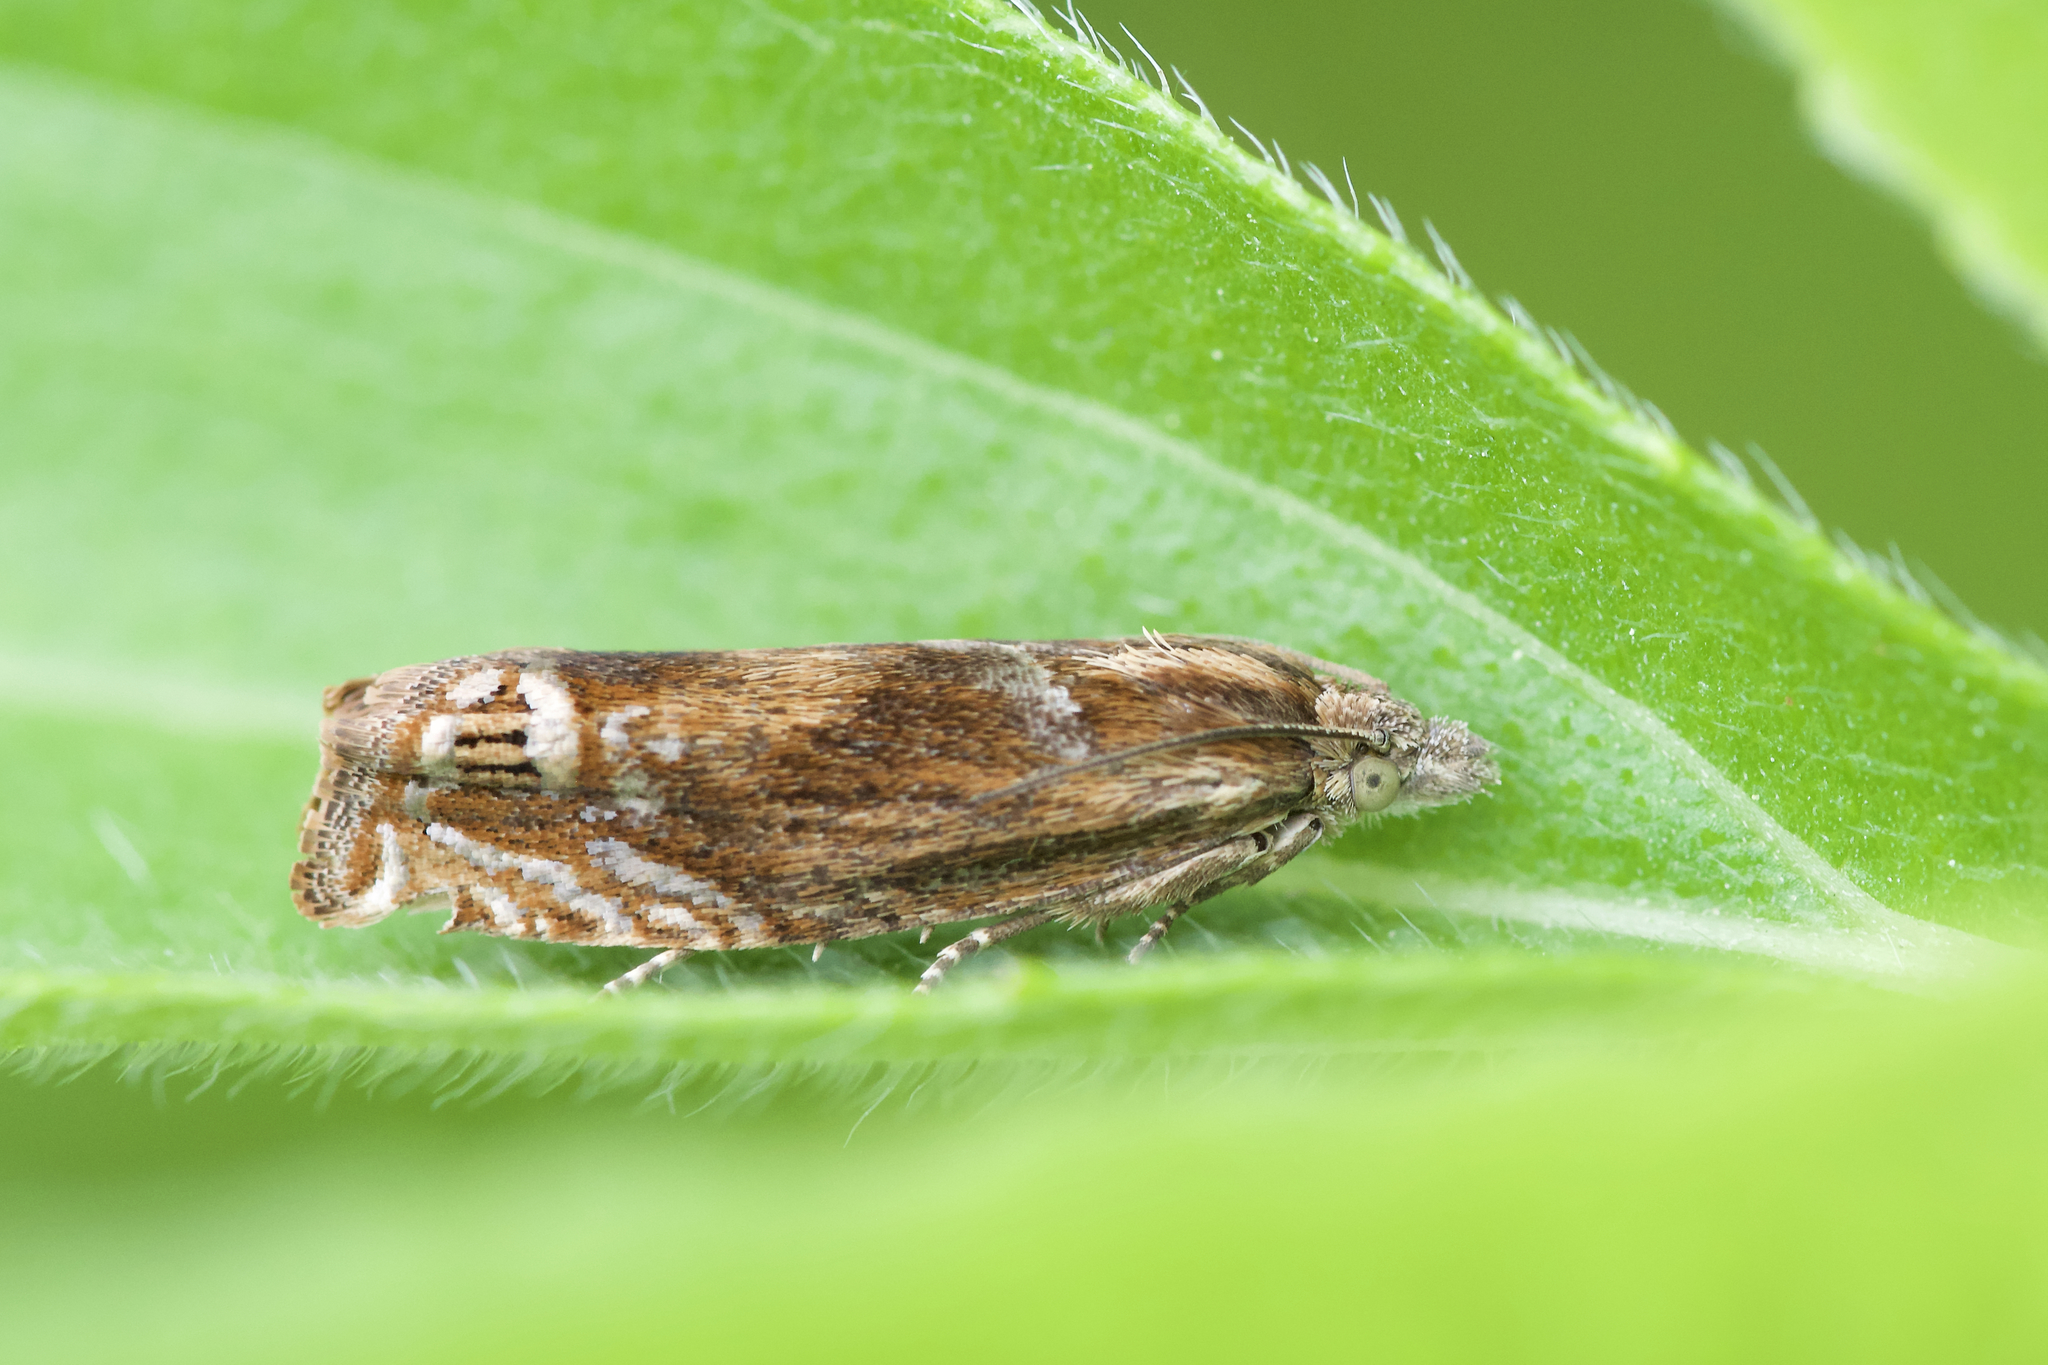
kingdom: Animalia
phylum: Arthropoda
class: Insecta
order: Lepidoptera
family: Tortricidae
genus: Eucosma
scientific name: Eucosma formosana
